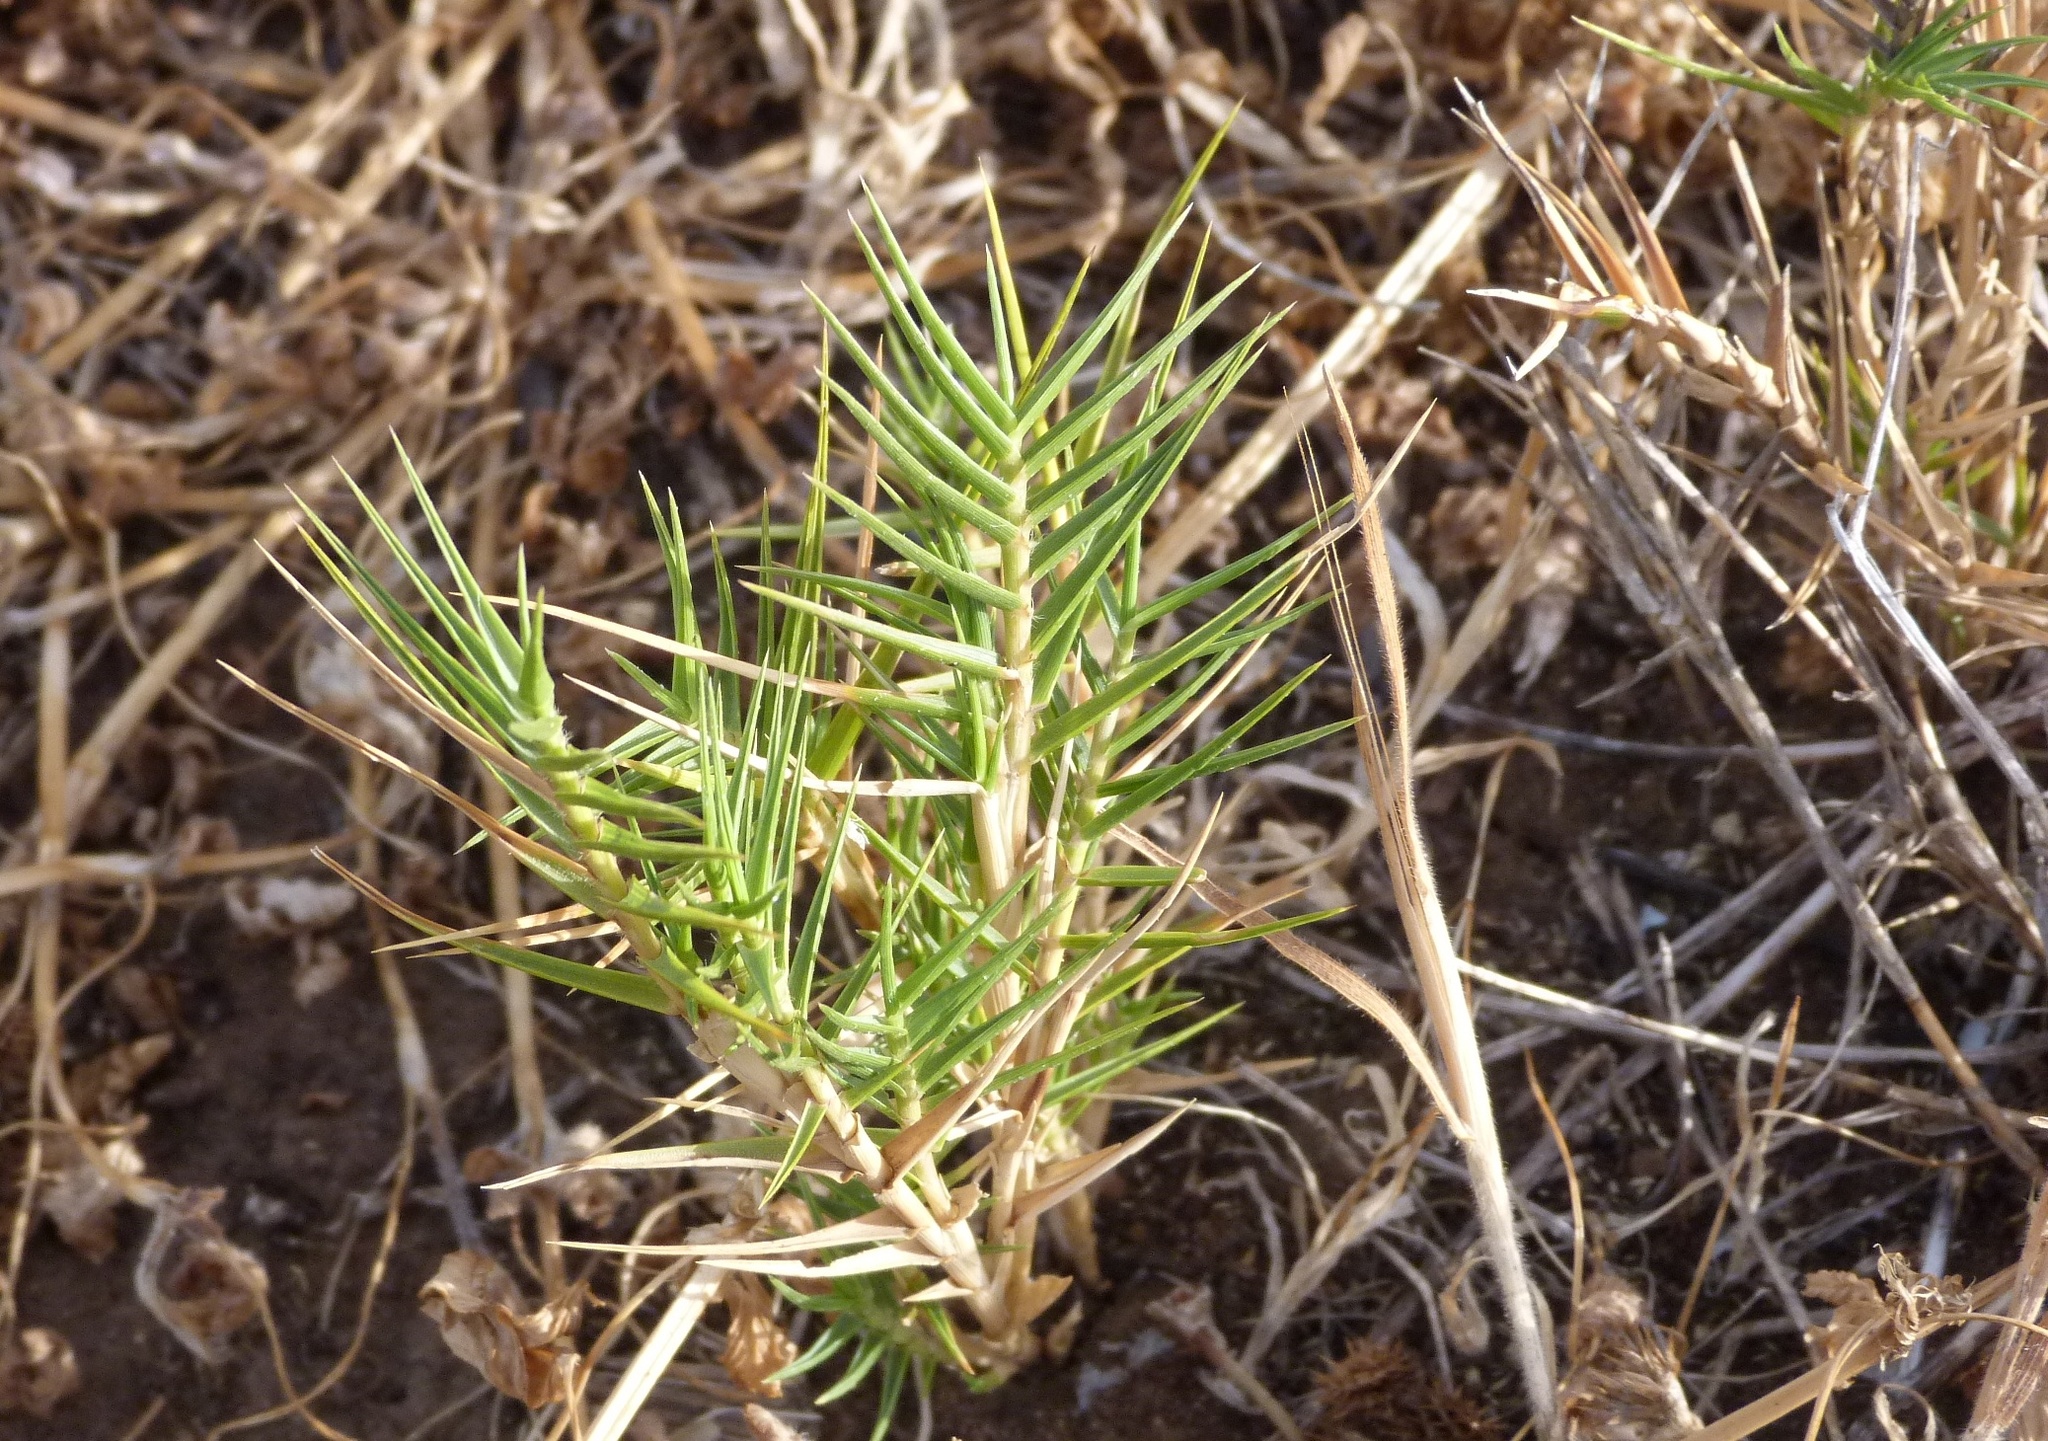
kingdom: Plantae
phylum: Tracheophyta
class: Liliopsida
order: Poales
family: Poaceae
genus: Distichlis
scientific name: Distichlis distichophylla
